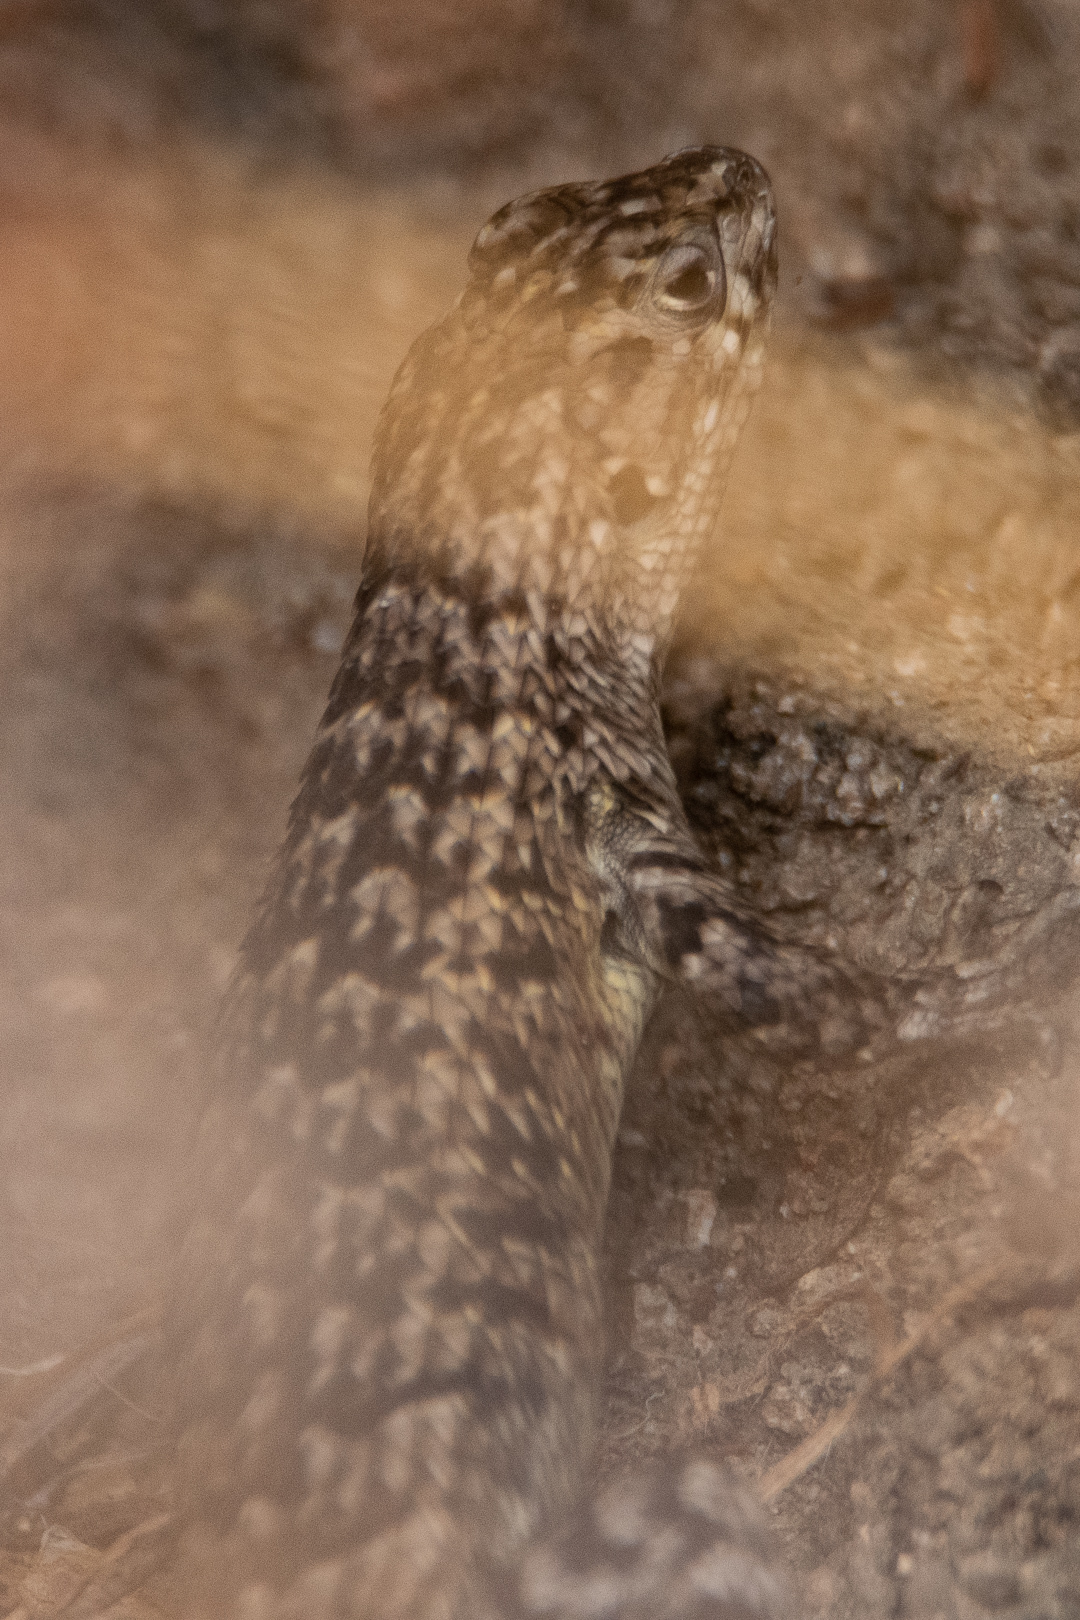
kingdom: Animalia
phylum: Chordata
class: Squamata
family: Liolaemidae
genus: Liolaemus
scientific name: Liolaemus nitidus
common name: Shining tree iguana
